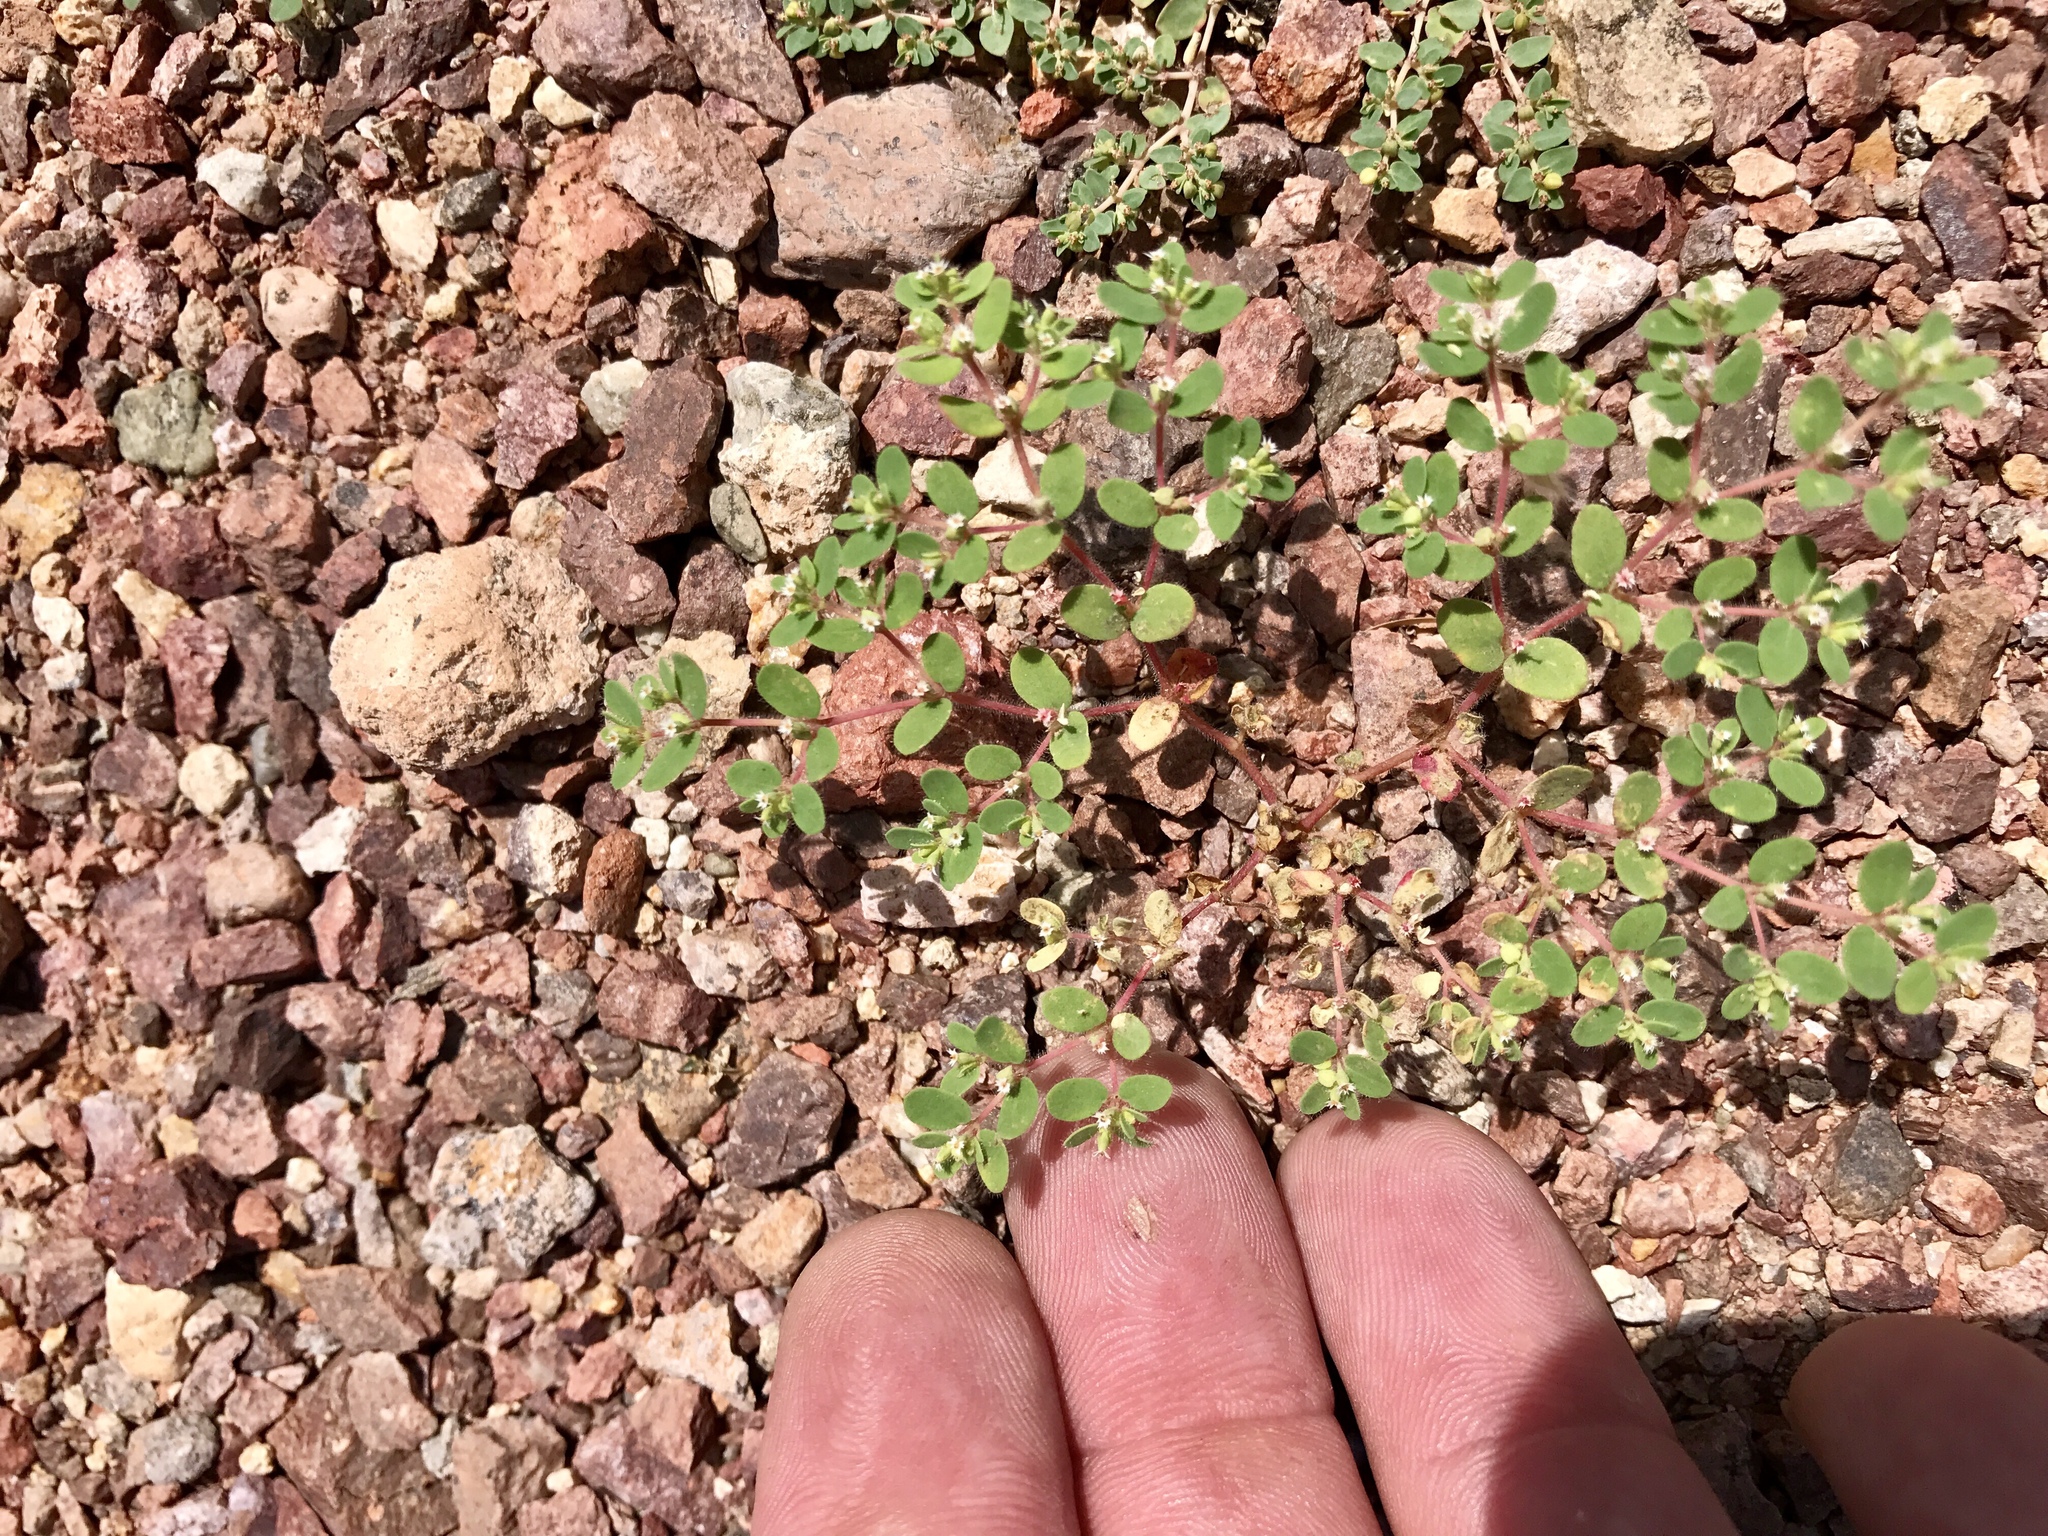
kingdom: Plantae
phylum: Tracheophyta
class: Magnoliopsida
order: Malpighiales
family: Euphorbiaceae
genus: Euphorbia
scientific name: Euphorbia setiloba
